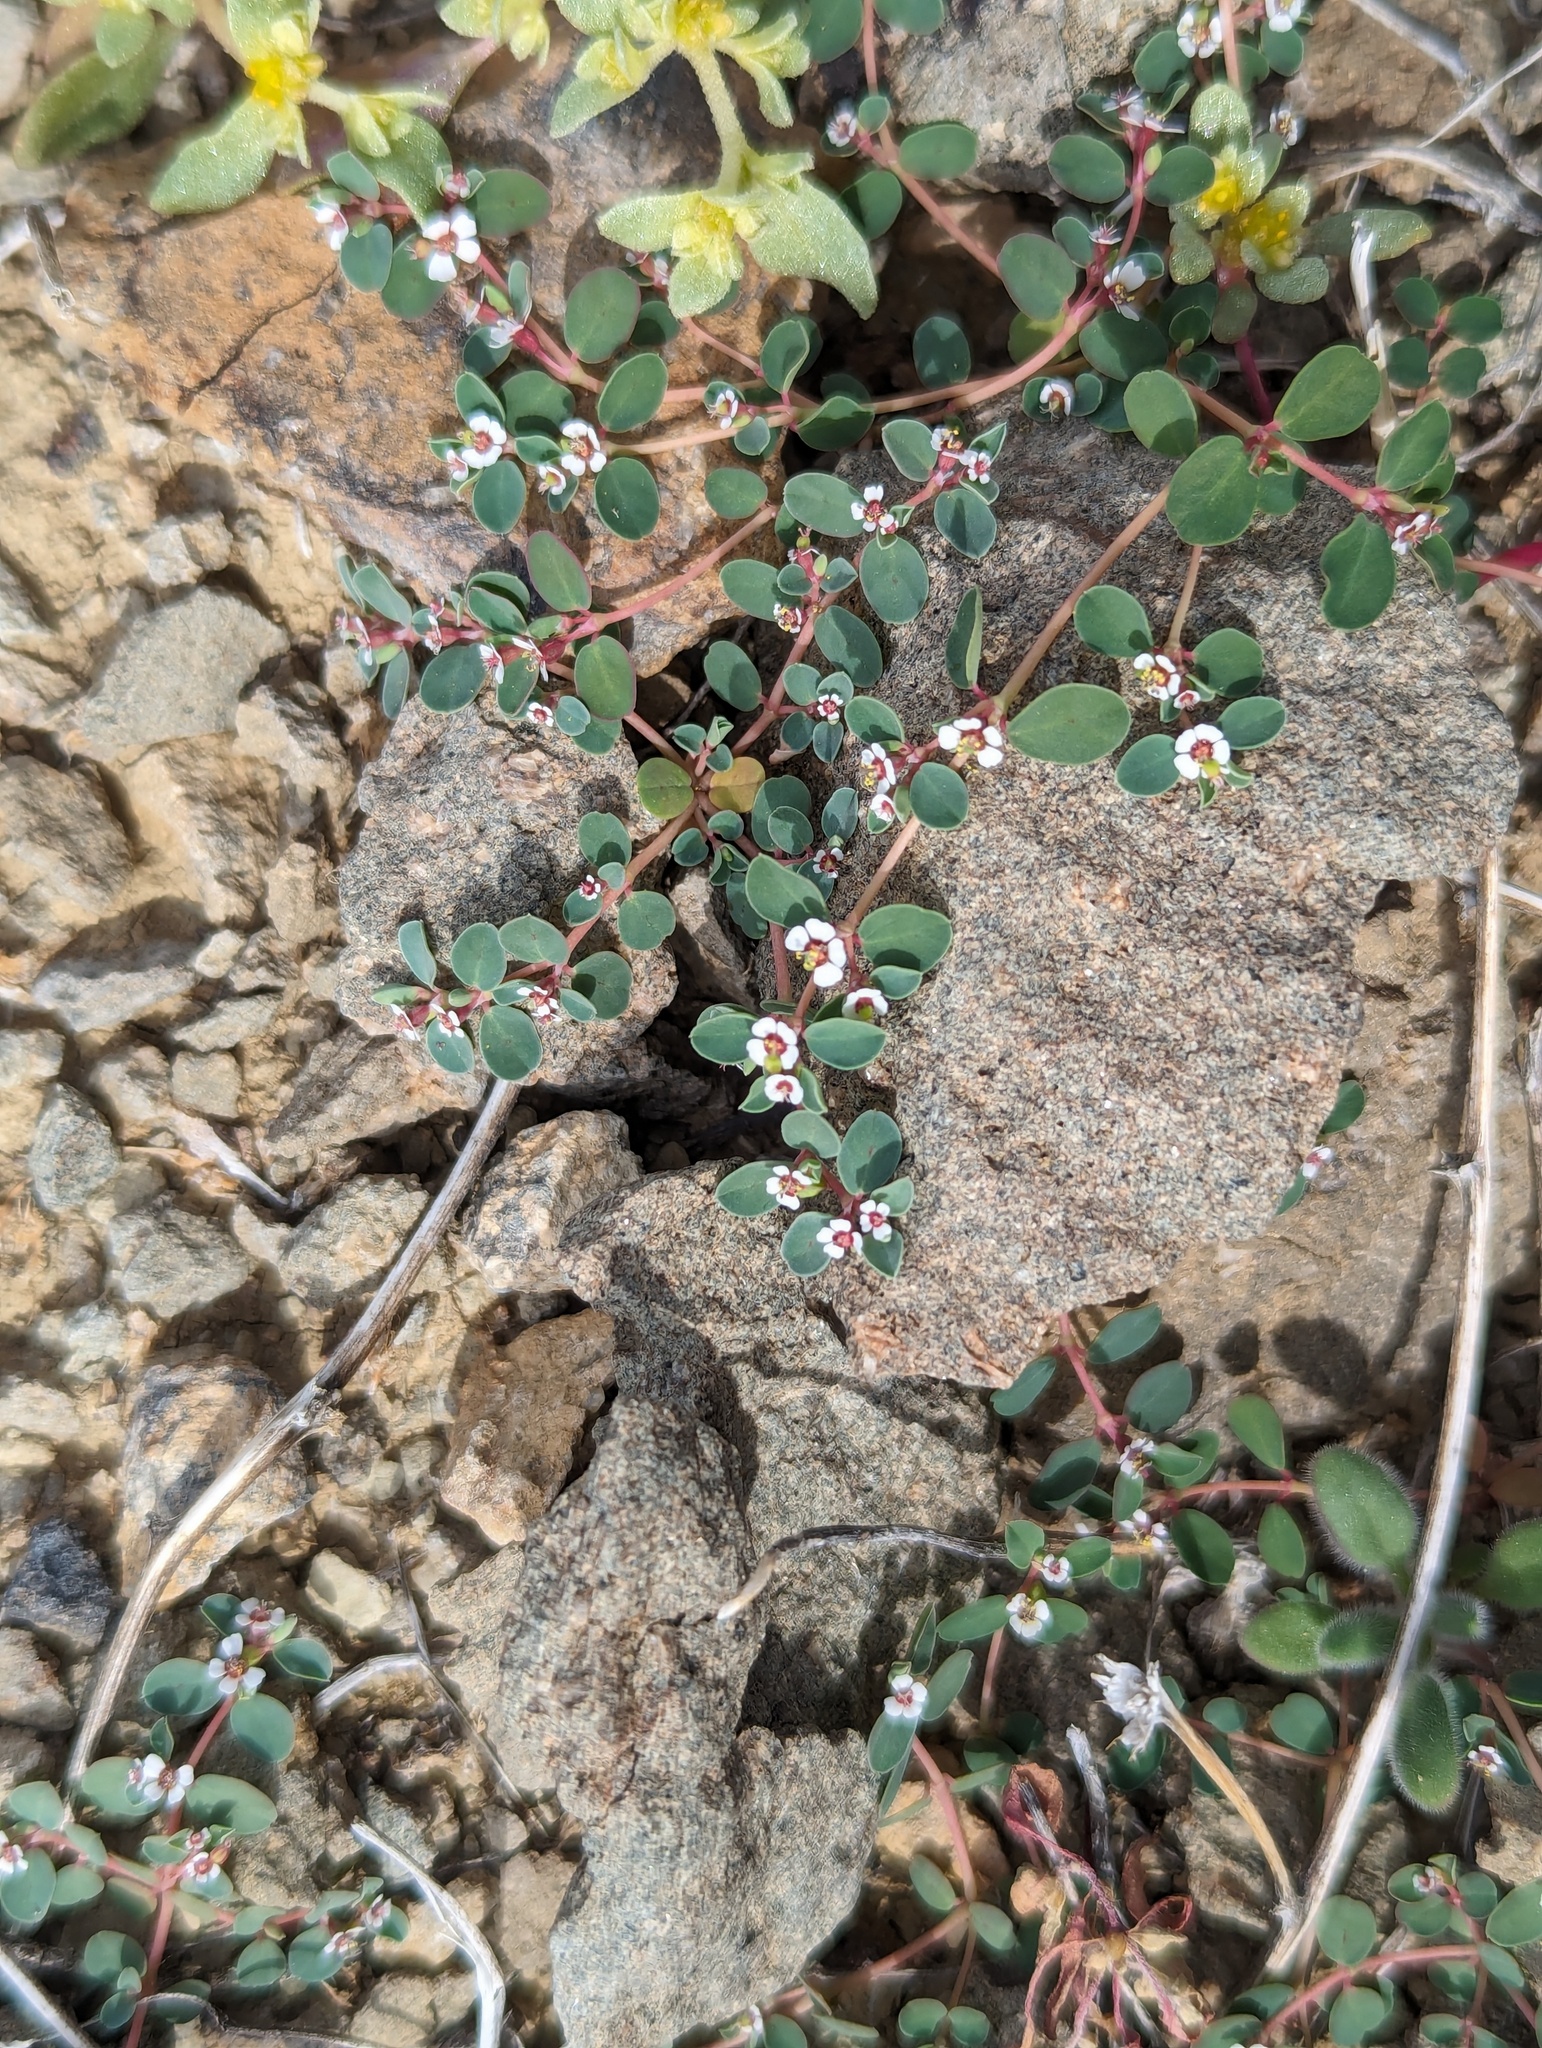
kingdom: Plantae
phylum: Tracheophyta
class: Magnoliopsida
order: Malpighiales
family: Euphorbiaceae
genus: Euphorbia
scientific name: Euphorbia albomarginata
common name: Whitemargin sandmat
